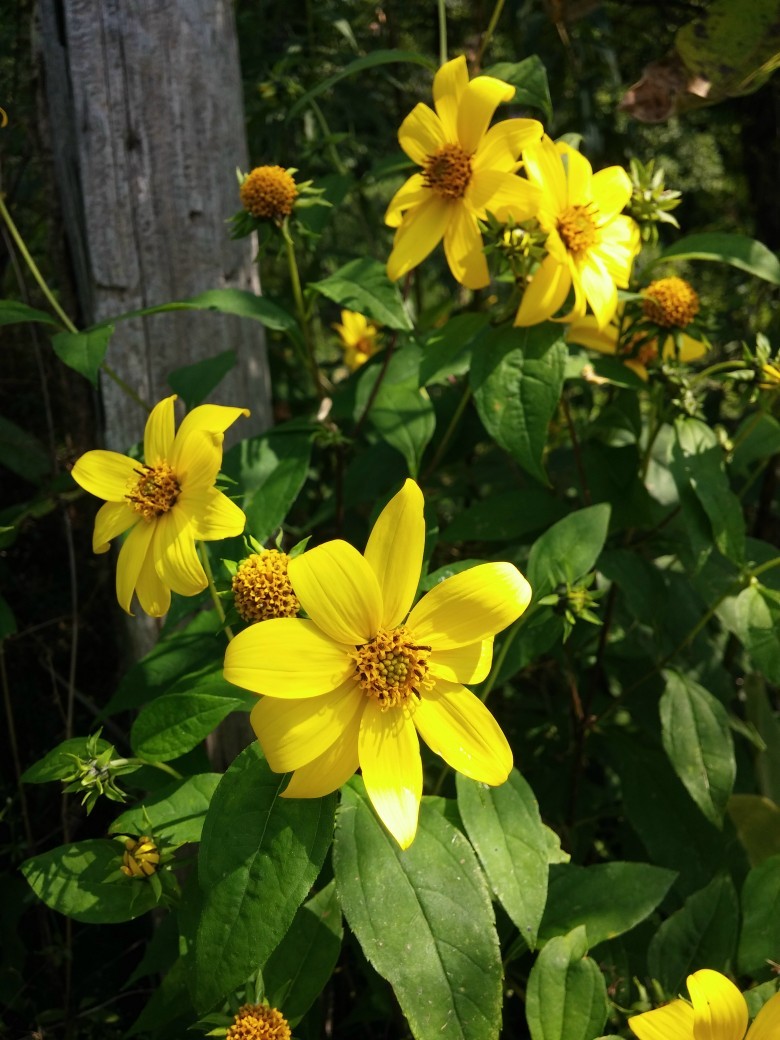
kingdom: Plantae
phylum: Tracheophyta
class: Magnoliopsida
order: Asterales
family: Asteraceae
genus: Helianthus
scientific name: Helianthus decapetalus
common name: Thin-leaved sunflower
